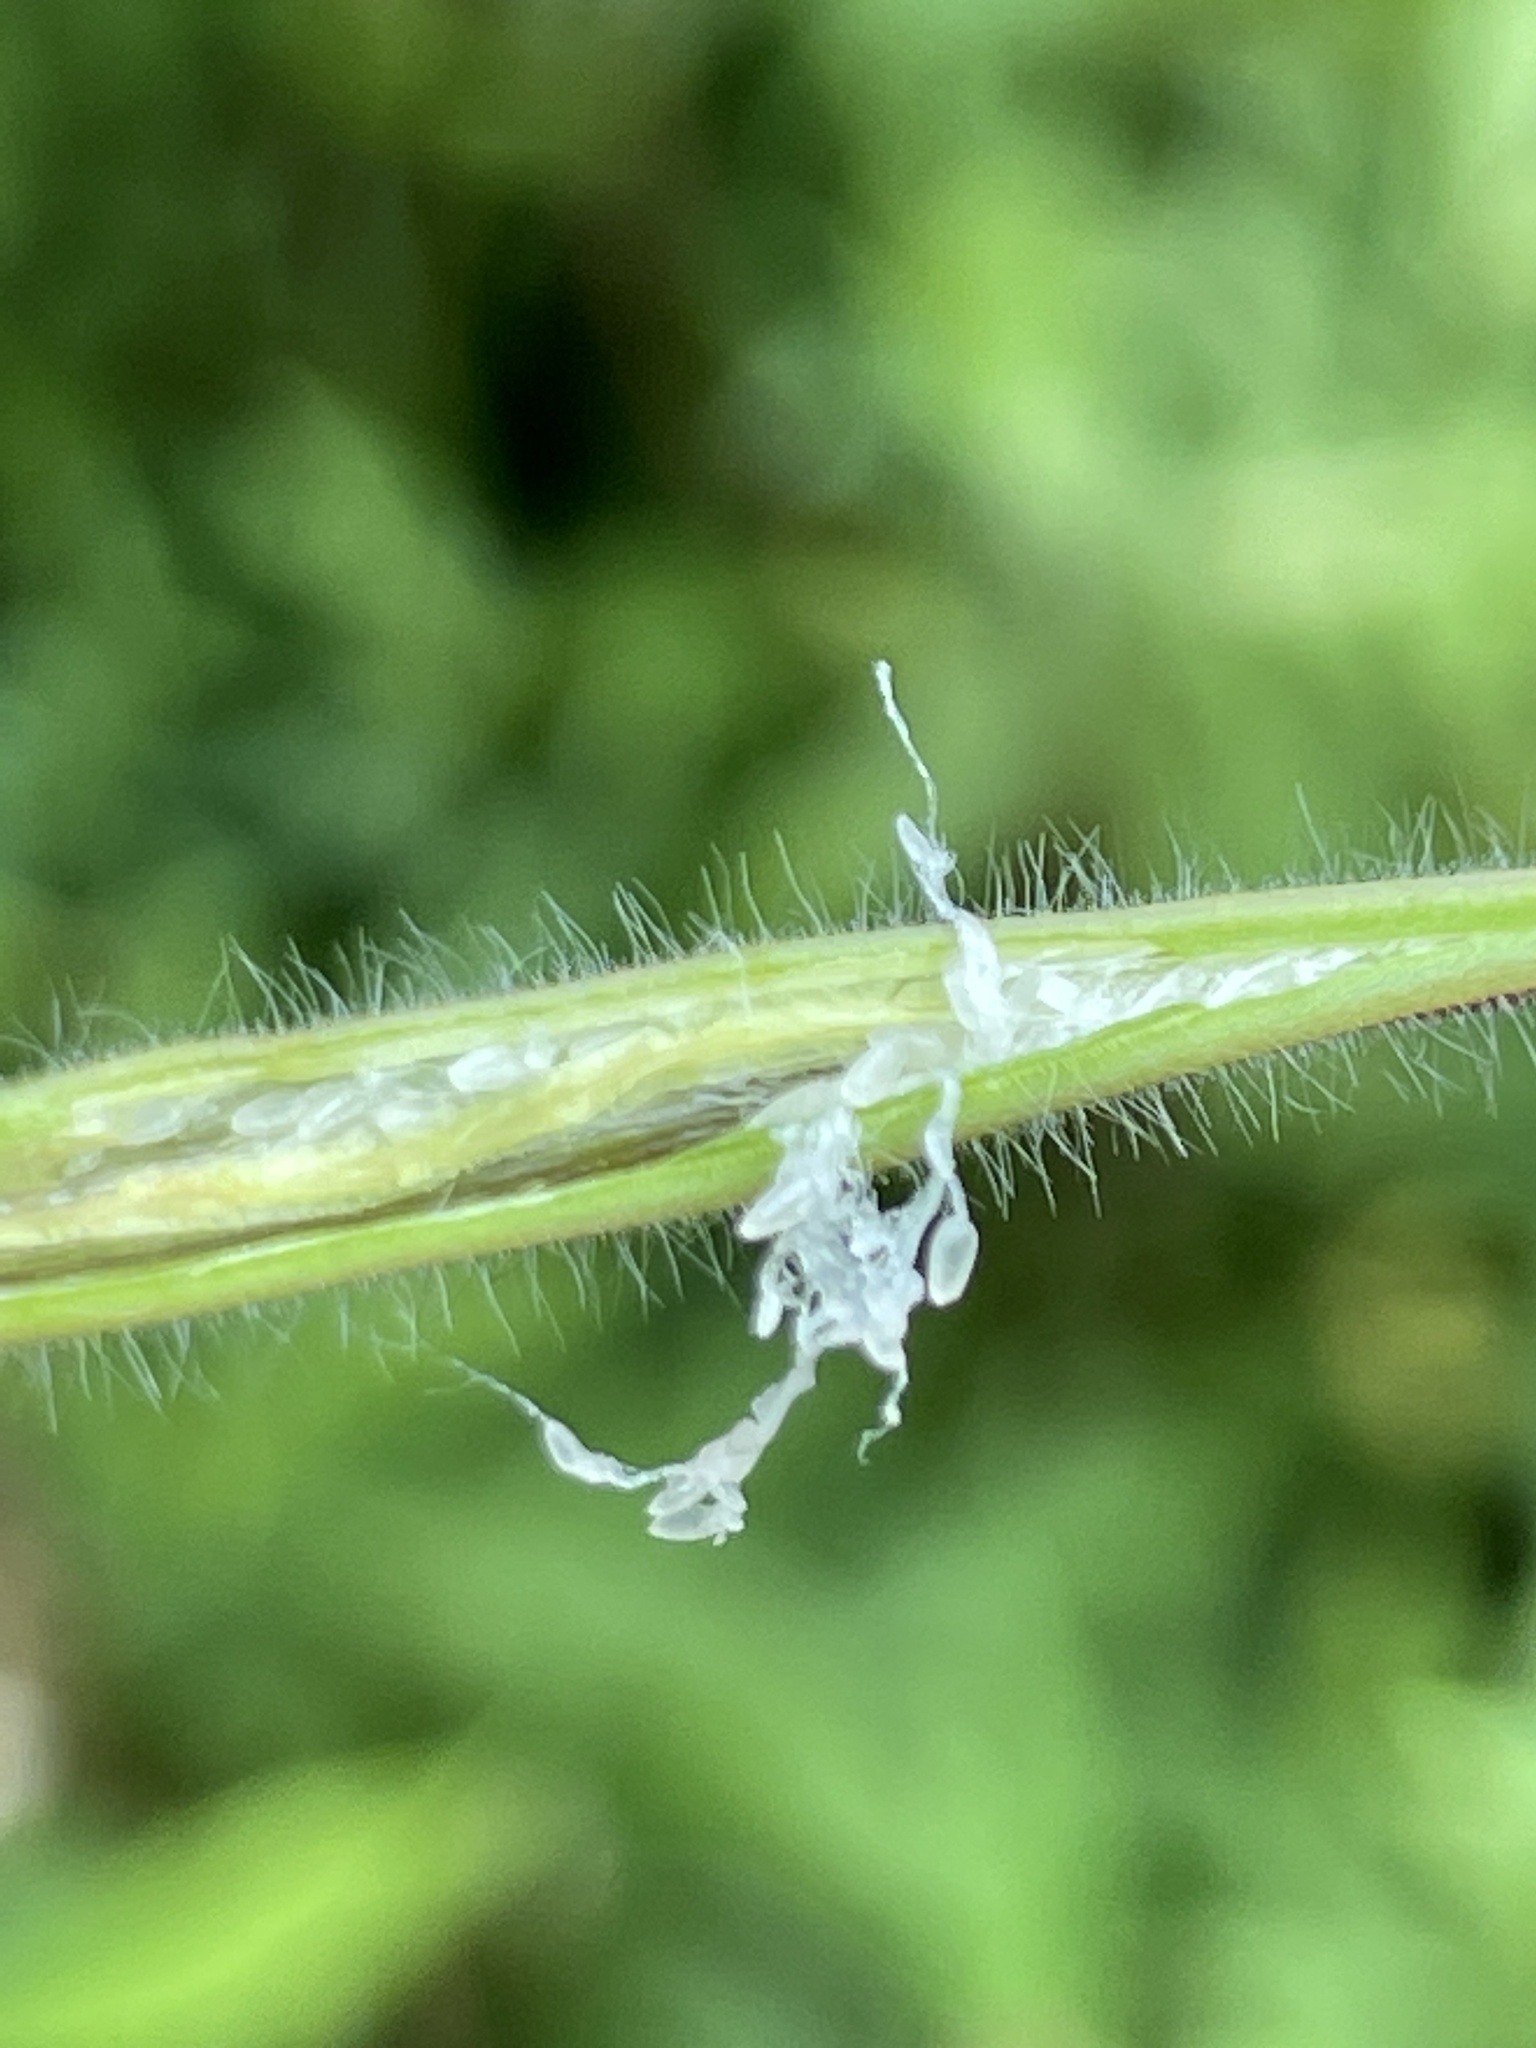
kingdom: Plantae
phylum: Tracheophyta
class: Magnoliopsida
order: Myrtales
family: Onagraceae
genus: Epilobium
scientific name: Epilobium hirsutum
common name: Great willowherb
